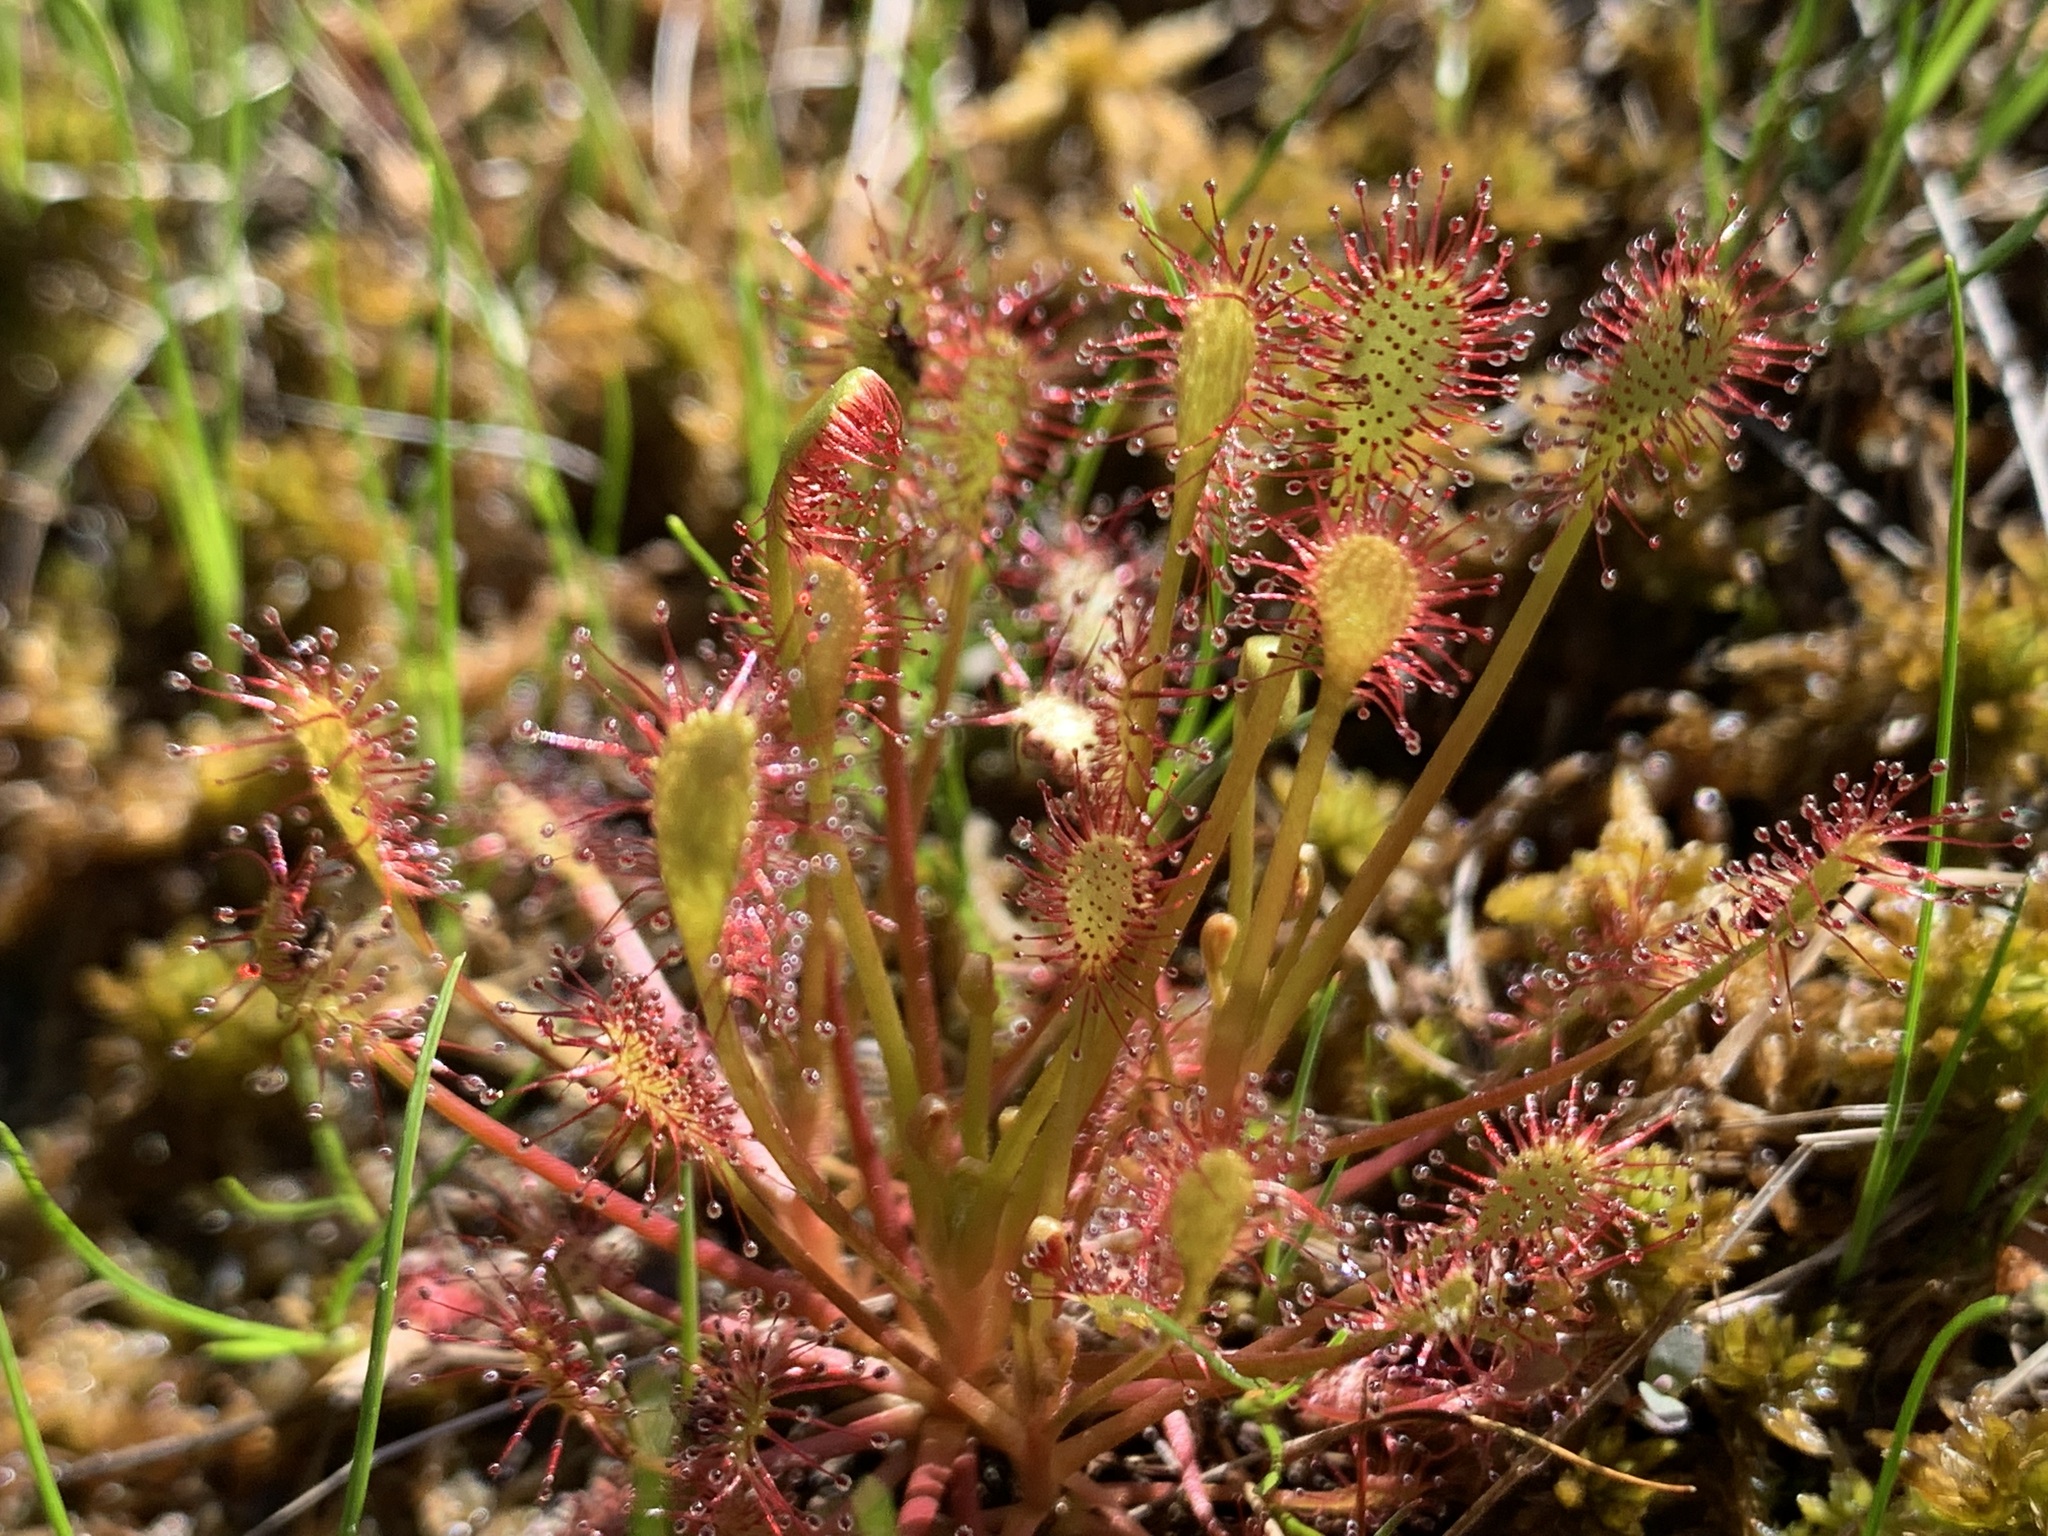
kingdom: Plantae
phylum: Tracheophyta
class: Magnoliopsida
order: Caryophyllales
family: Droseraceae
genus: Drosera
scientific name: Drosera intermedia
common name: Oblong-leaved sundew
